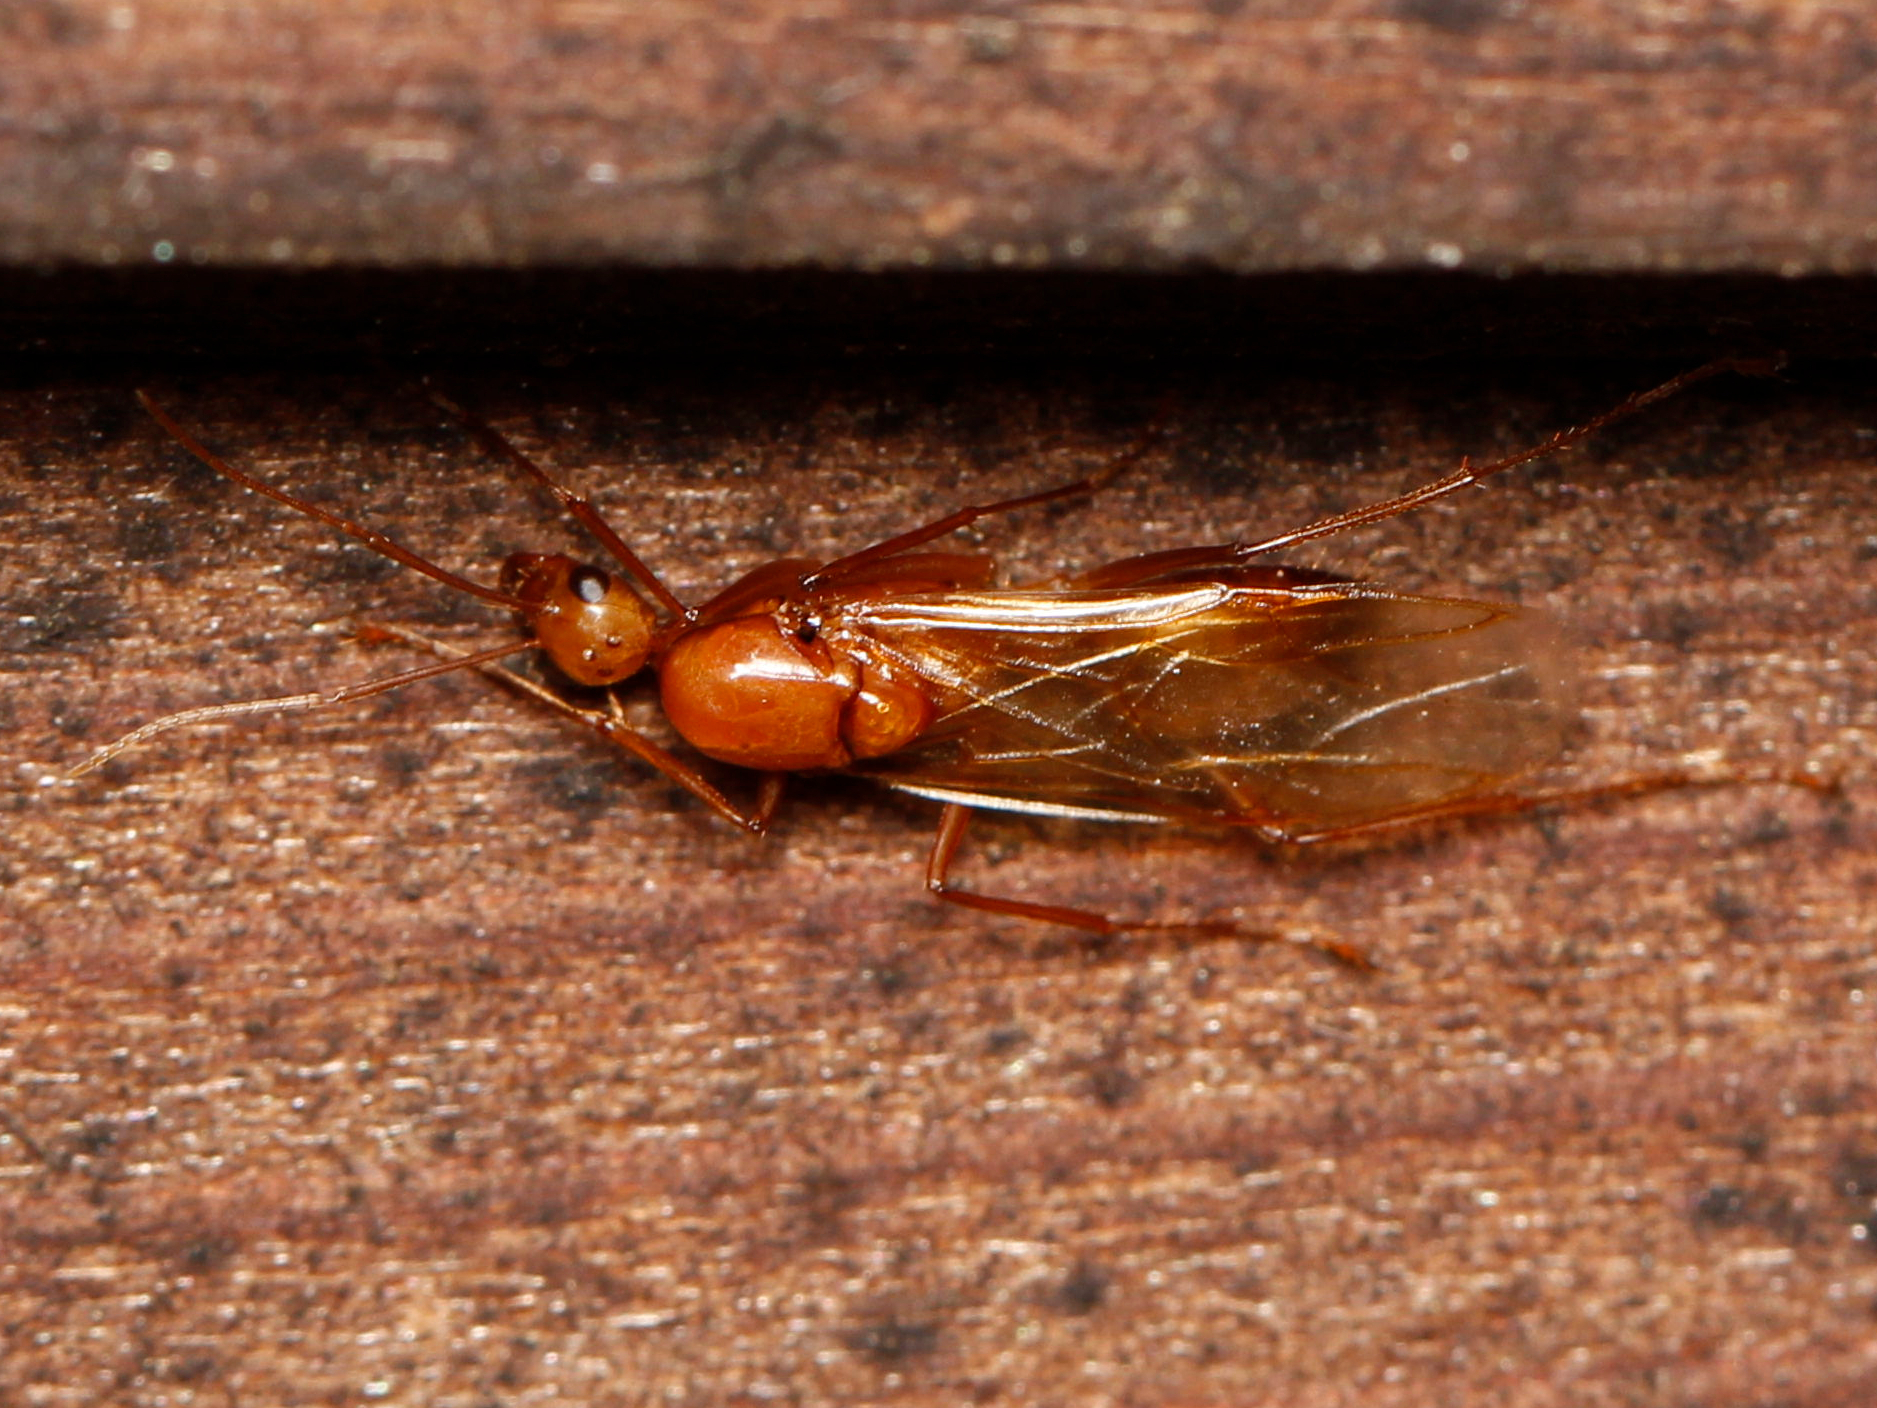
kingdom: Animalia
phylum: Arthropoda
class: Insecta
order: Hymenoptera
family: Formicidae
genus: Camponotus
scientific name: Camponotus castaneus
